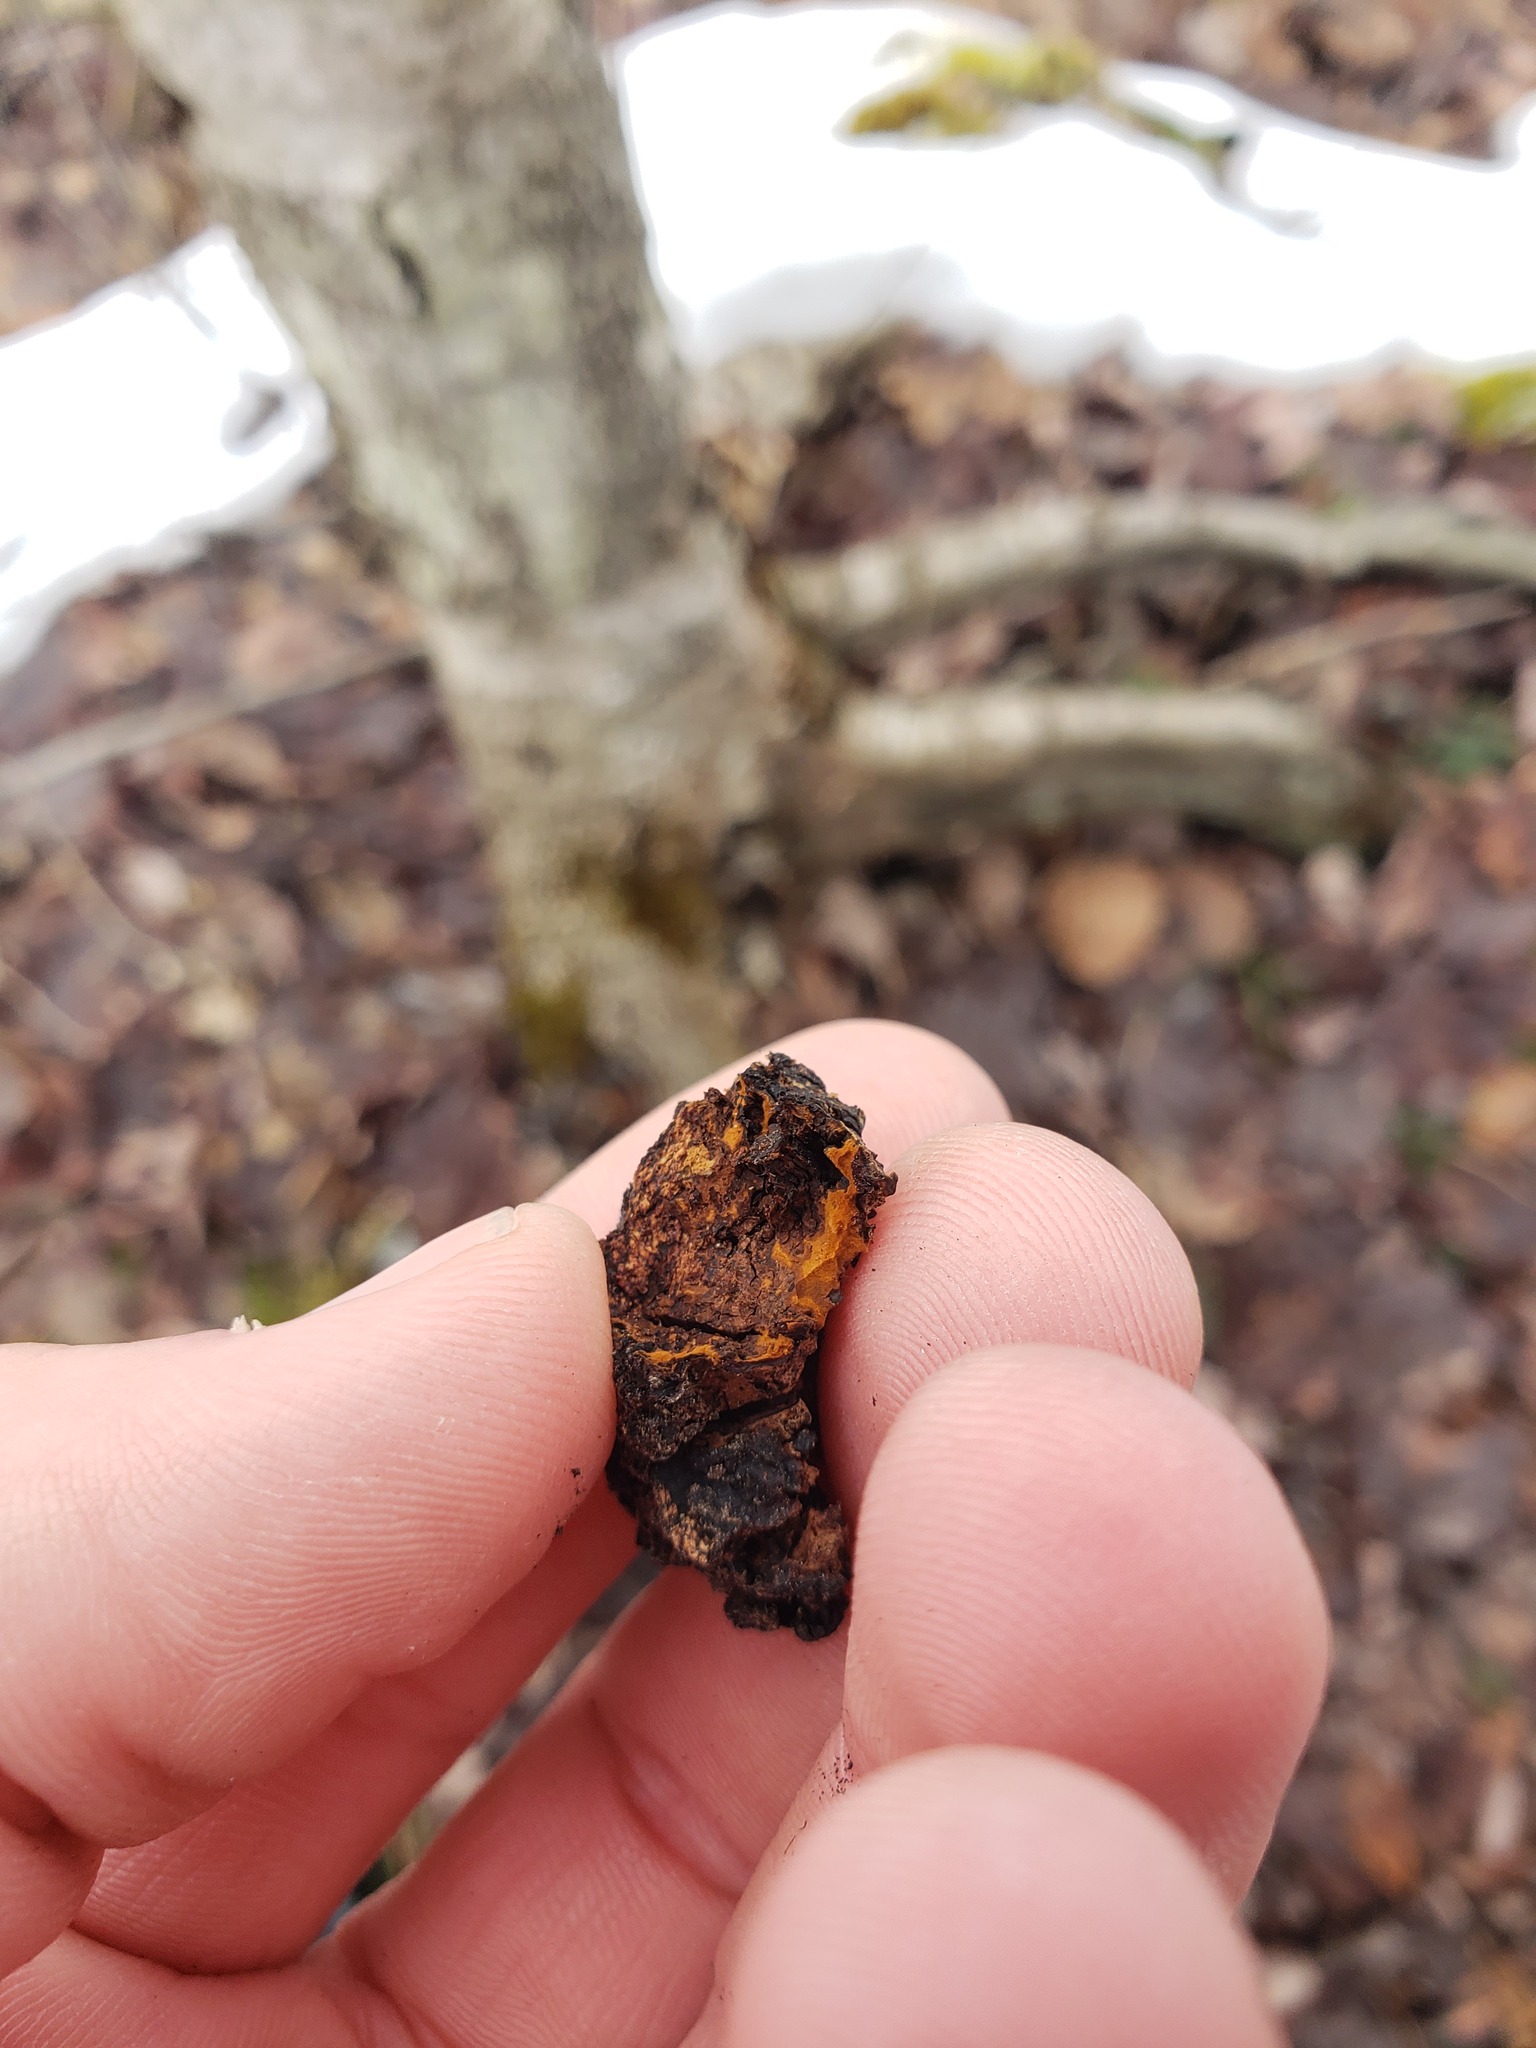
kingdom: Fungi
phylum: Basidiomycota
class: Agaricomycetes
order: Hymenochaetales
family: Hymenochaetaceae
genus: Inonotus
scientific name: Inonotus obliquus
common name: Chaga
